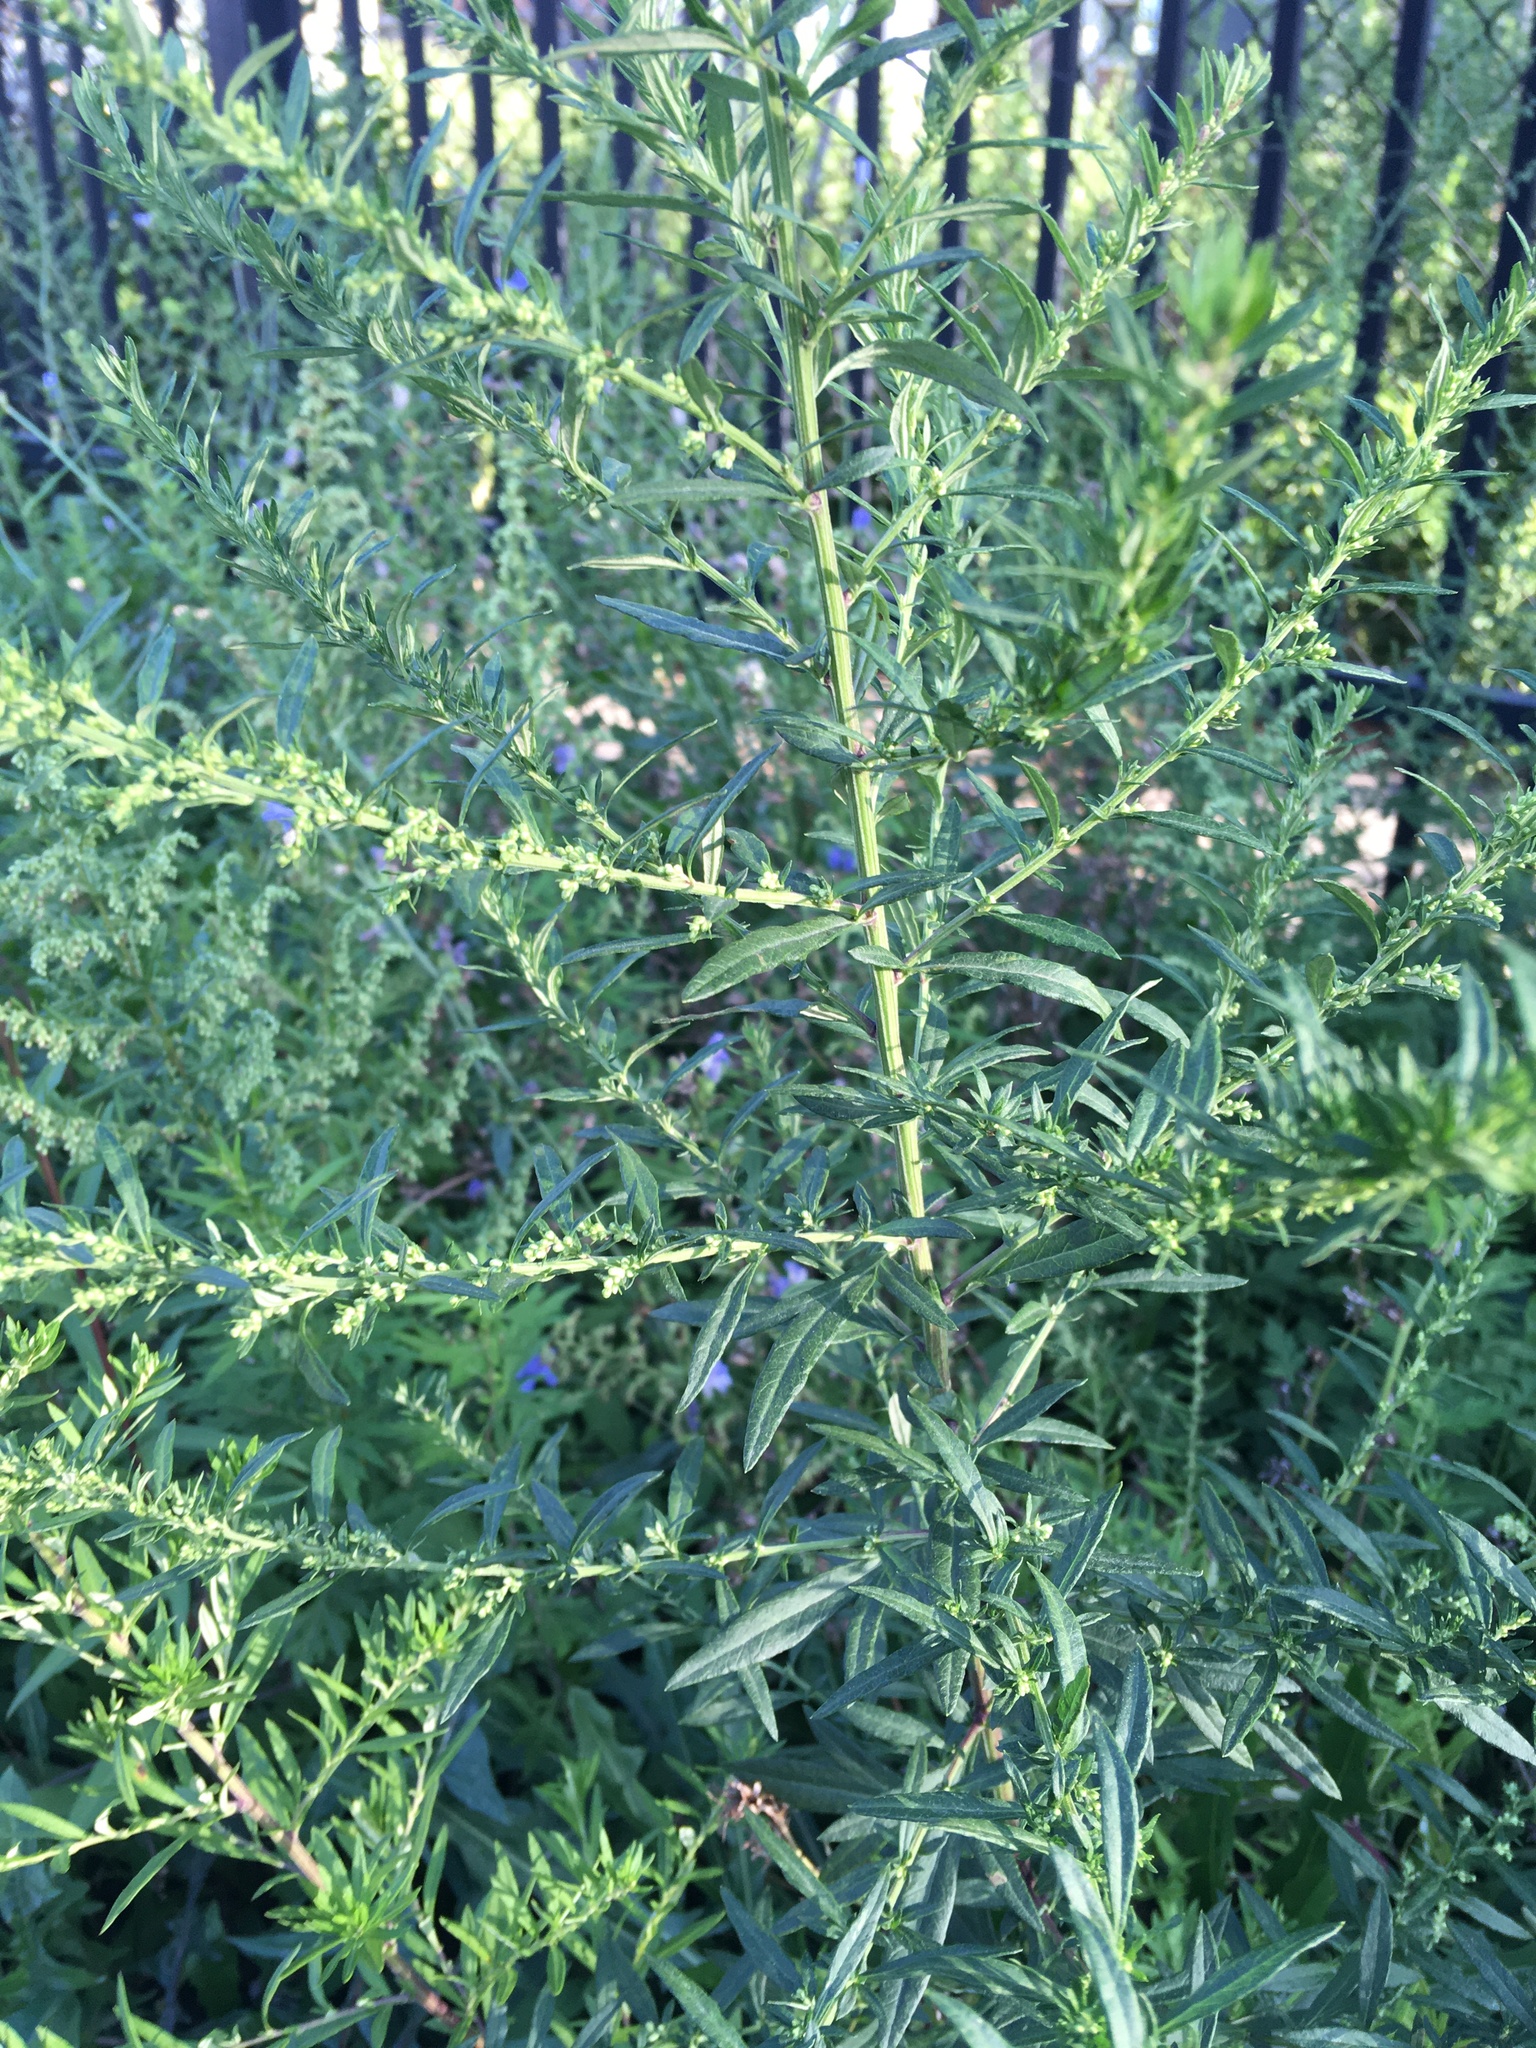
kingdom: Plantae
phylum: Tracheophyta
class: Magnoliopsida
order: Asterales
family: Asteraceae
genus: Artemisia
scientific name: Artemisia vulgaris
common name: Mugwort
